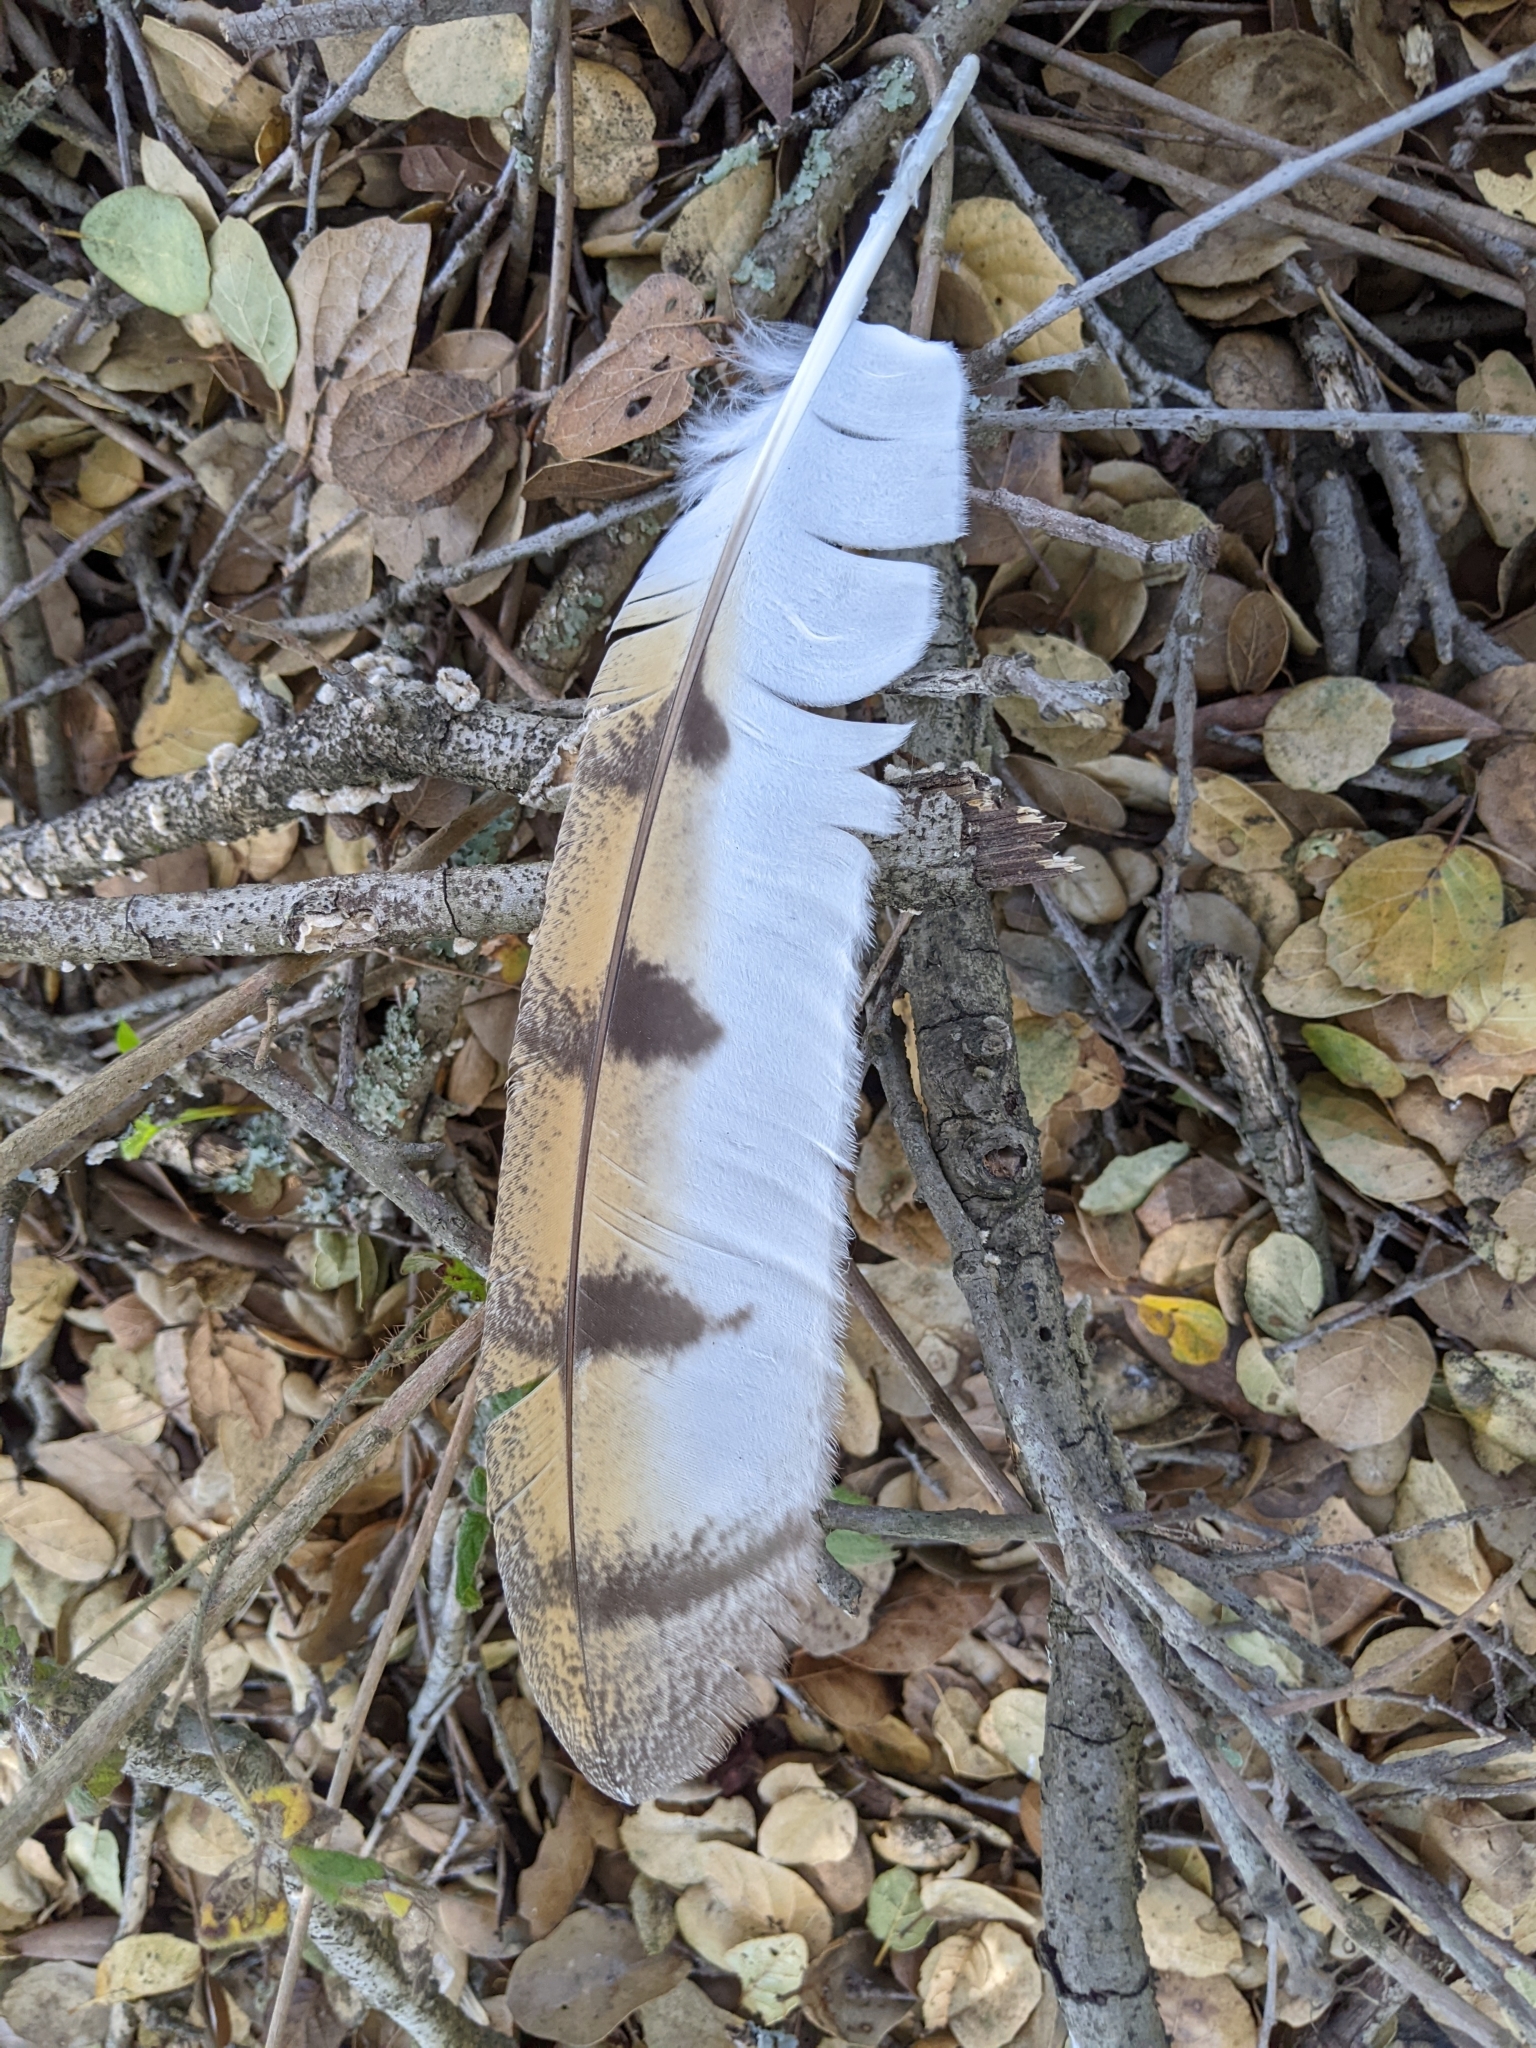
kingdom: Animalia
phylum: Chordata
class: Aves
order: Strigiformes
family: Tytonidae
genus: Tyto
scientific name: Tyto alba
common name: Barn owl
